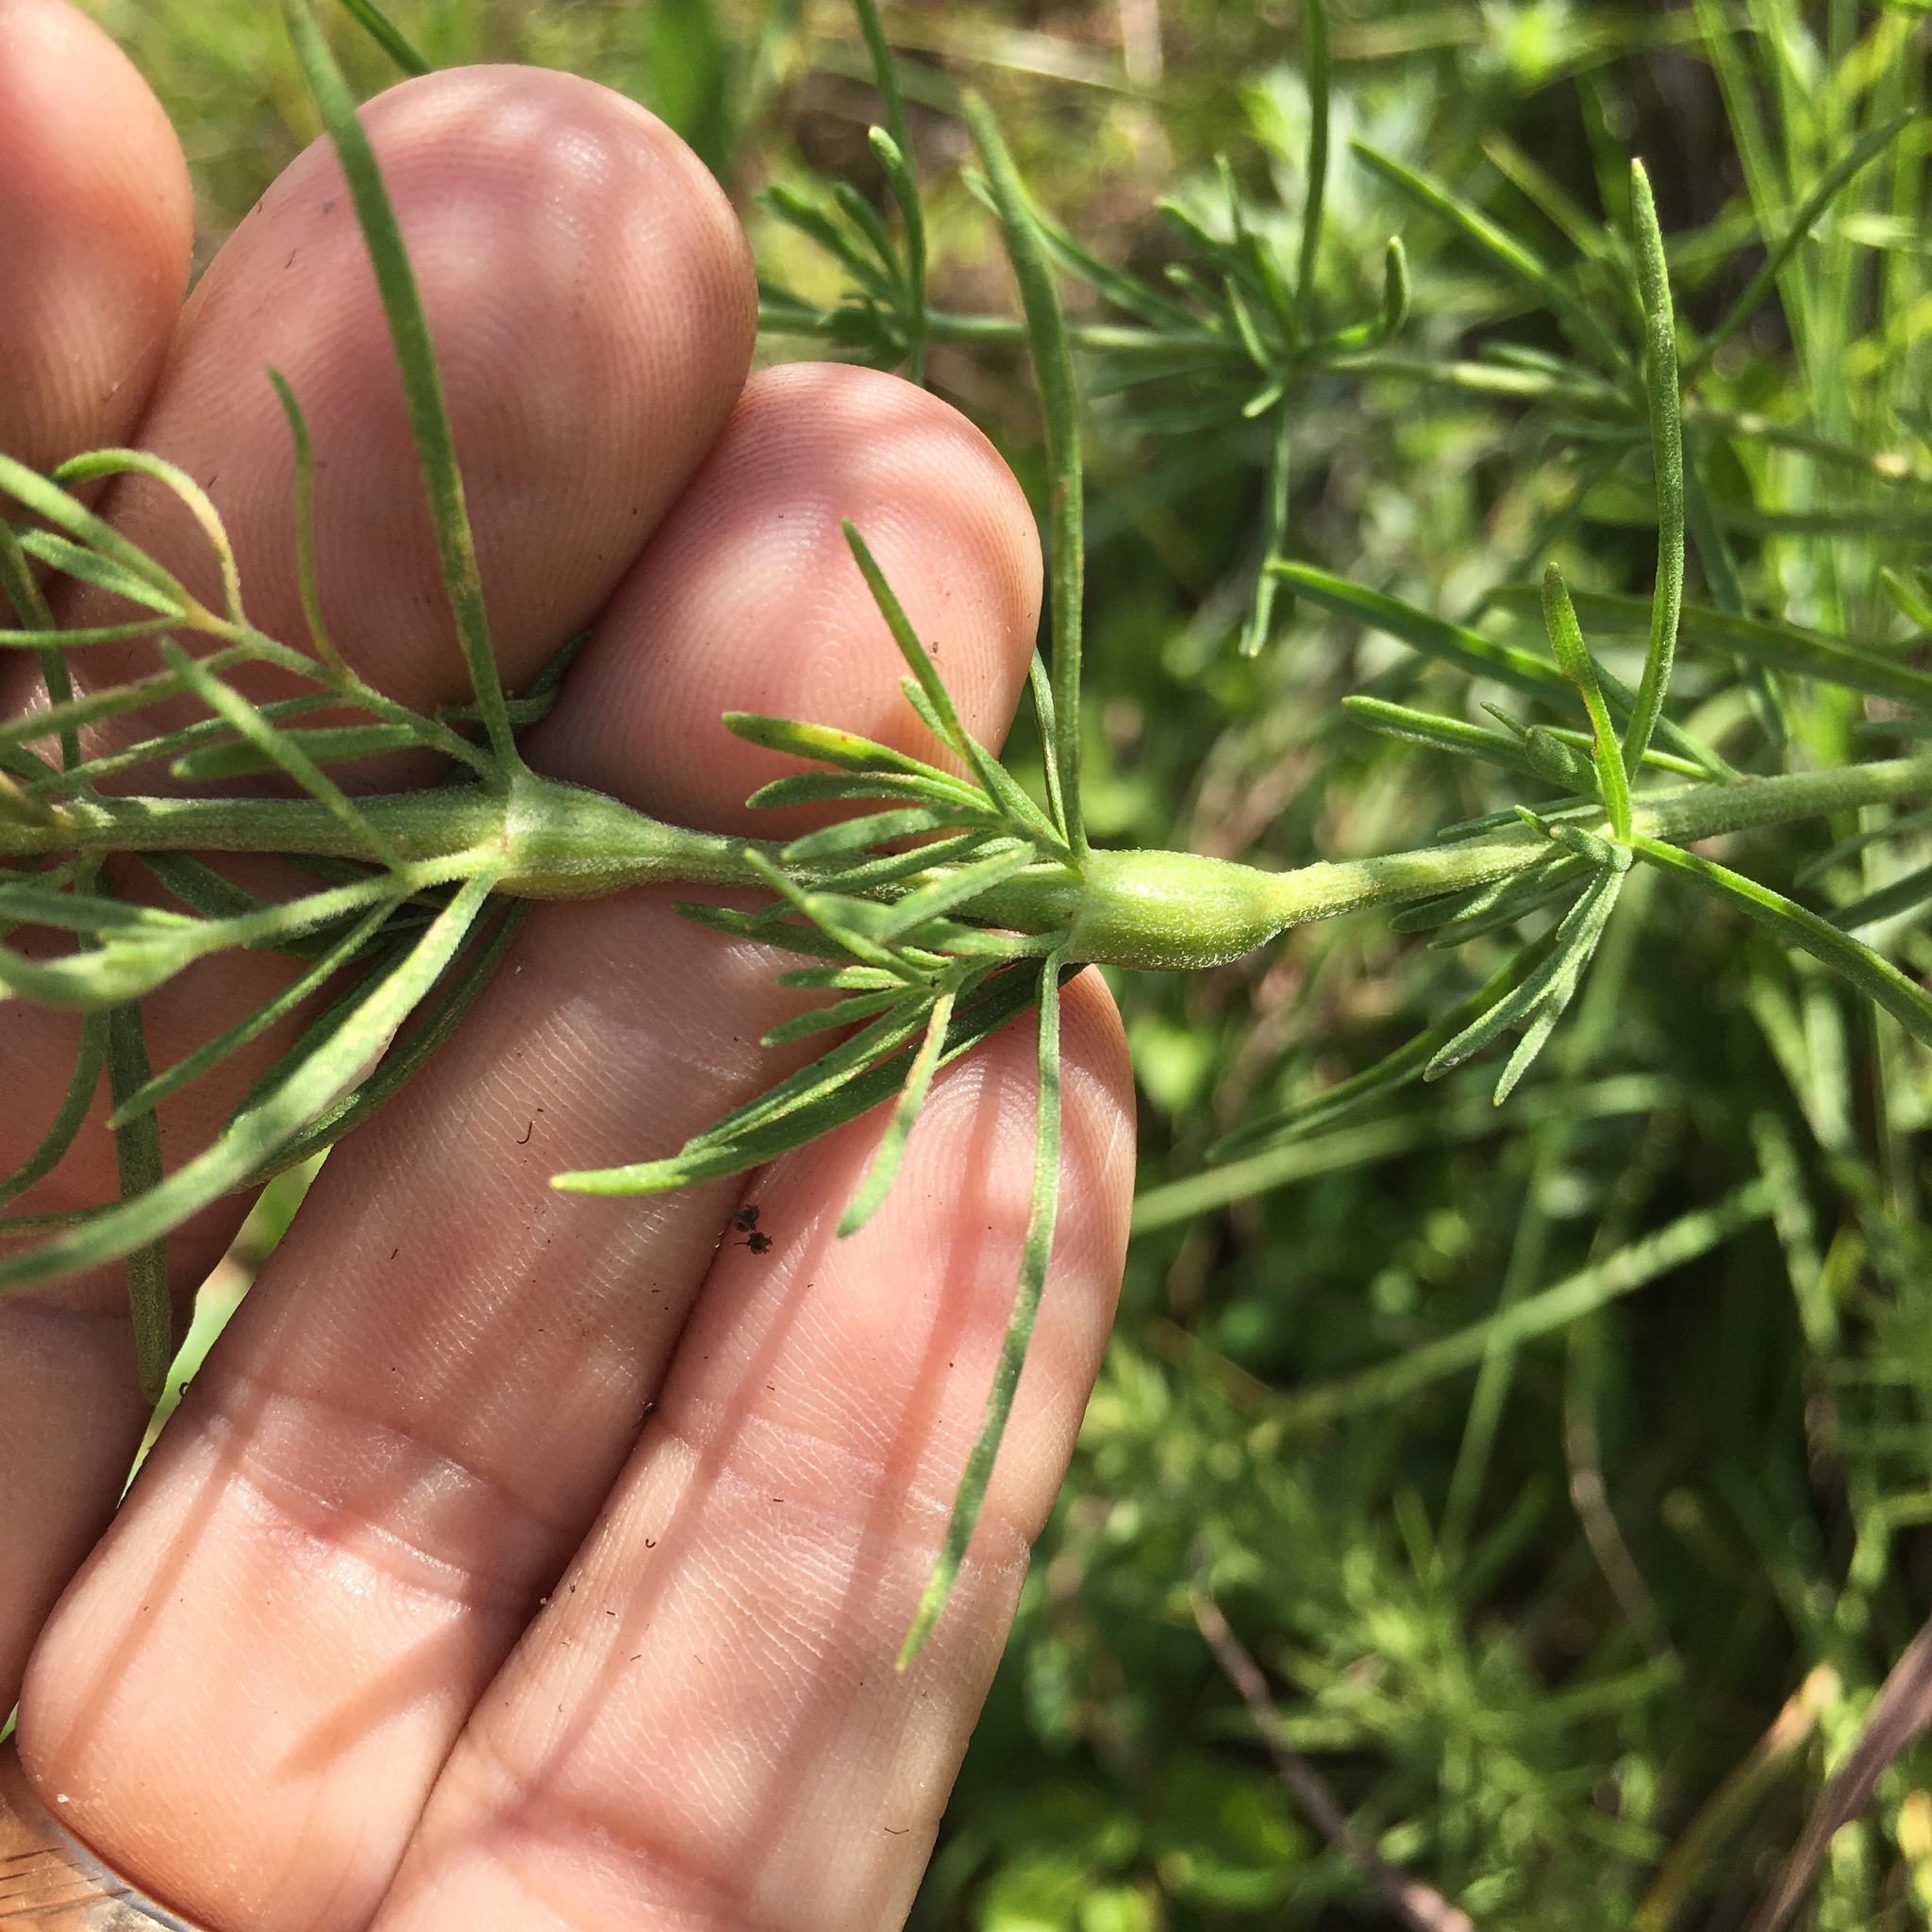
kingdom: Plantae
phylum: Tracheophyta
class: Magnoliopsida
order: Asterales
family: Asteraceae
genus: Eupatorium
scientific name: Eupatorium hyssopifolium
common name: Hyssop-leaf thoroughwort
